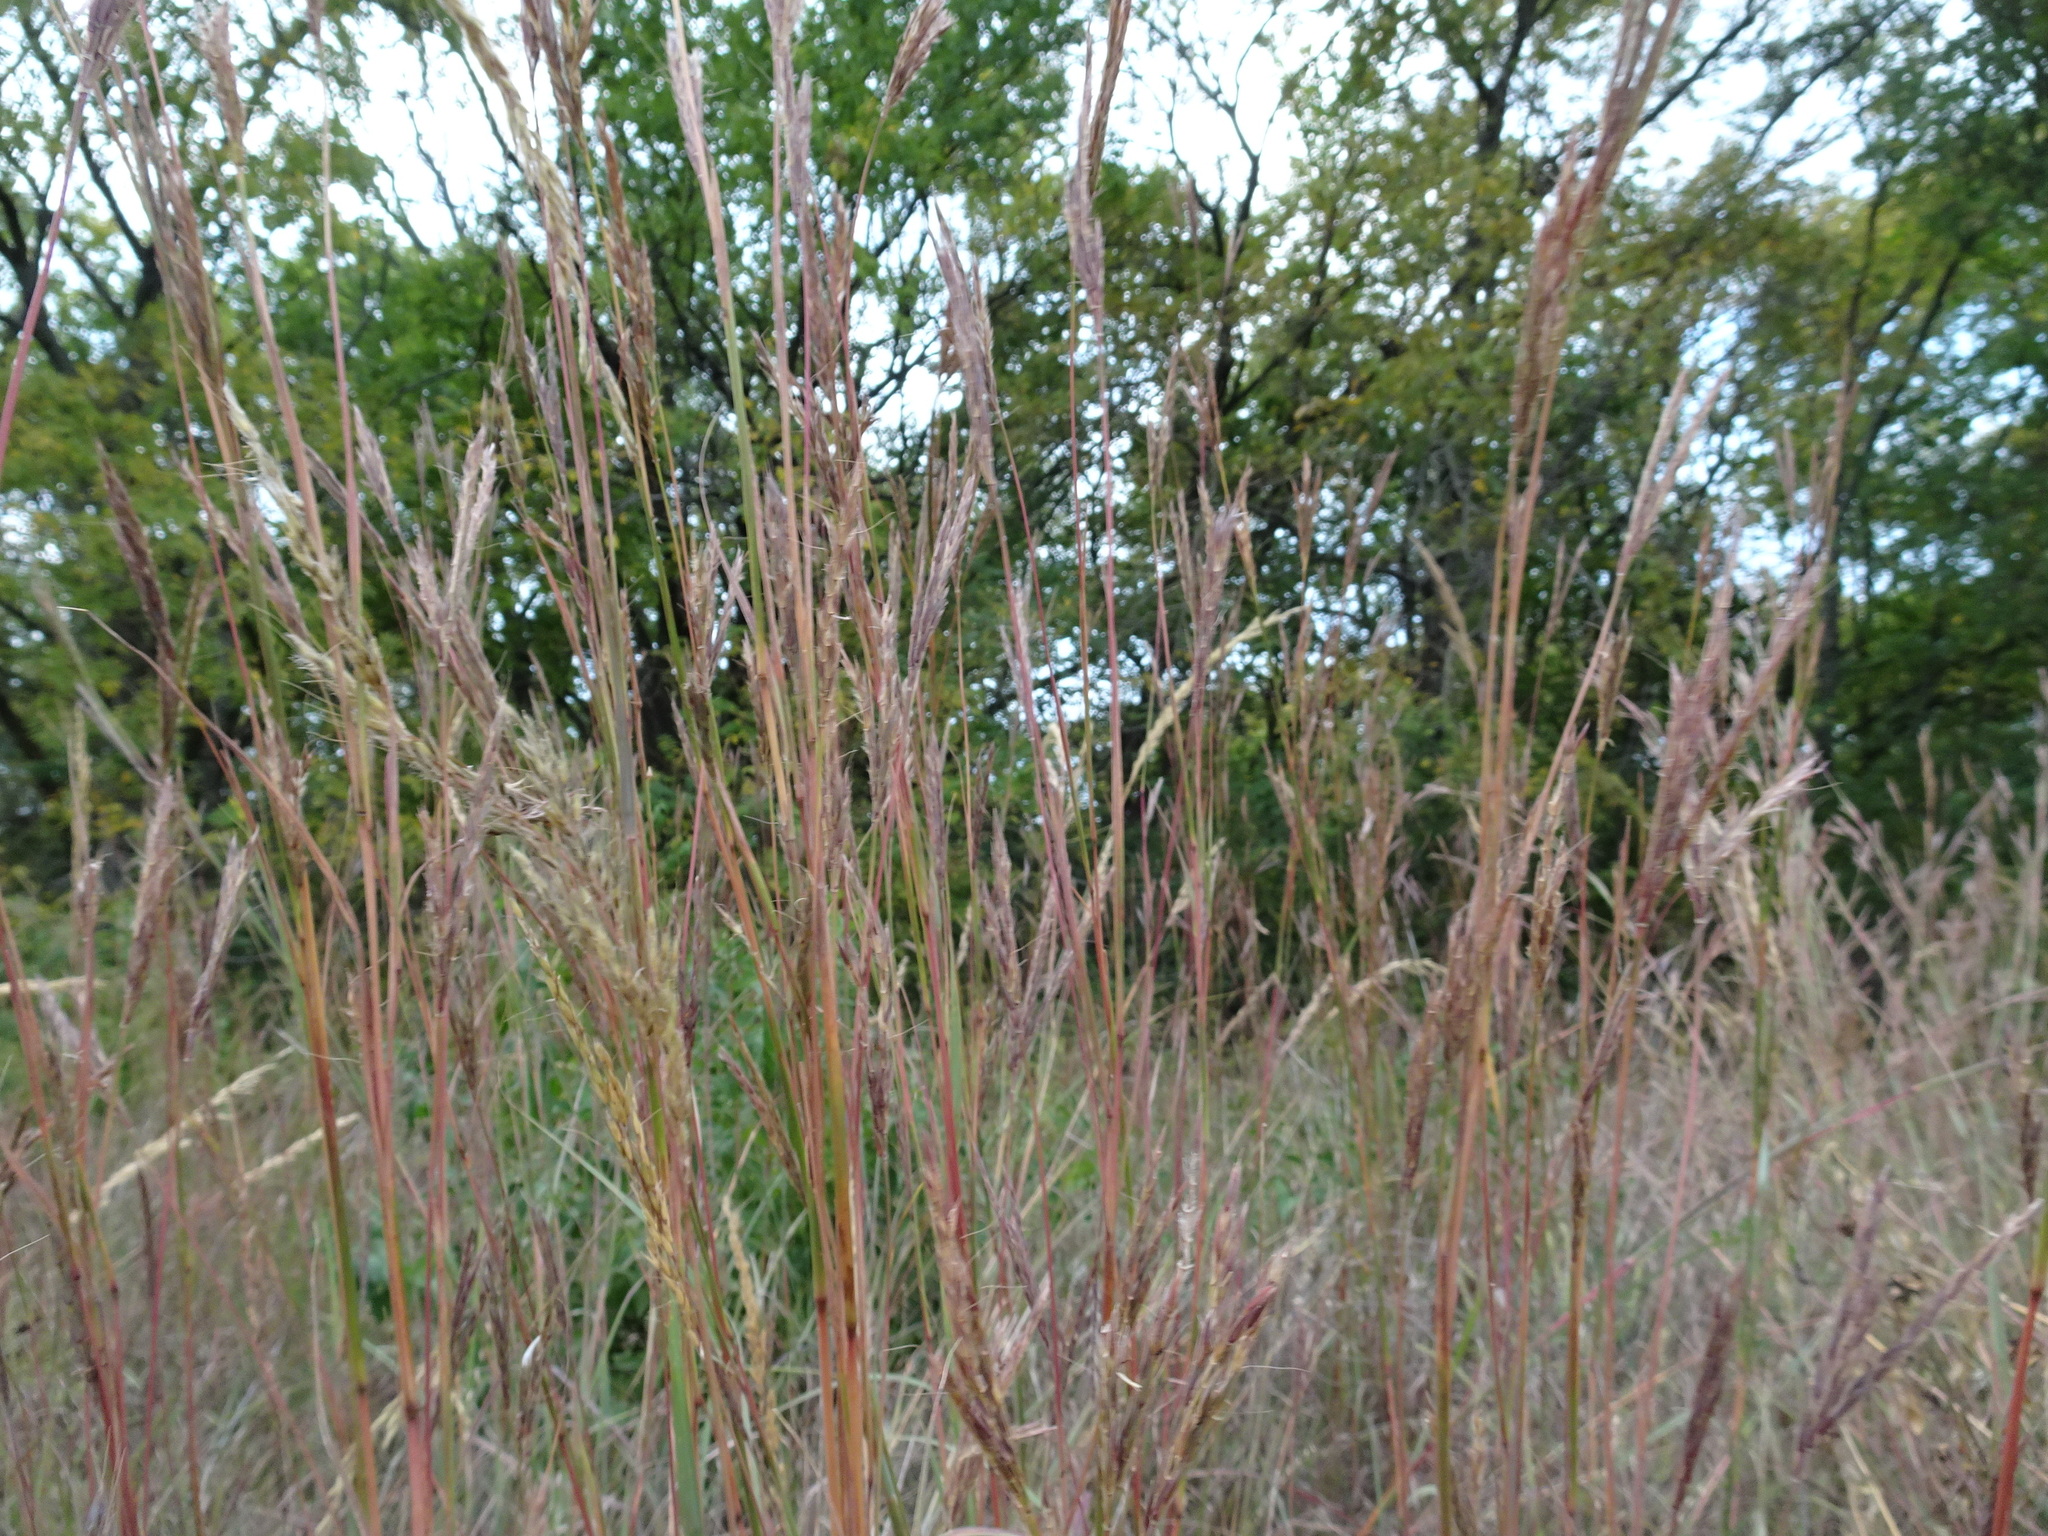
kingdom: Plantae
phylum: Tracheophyta
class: Liliopsida
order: Poales
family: Poaceae
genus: Andropogon
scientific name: Andropogon gerardi
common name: Big bluestem
